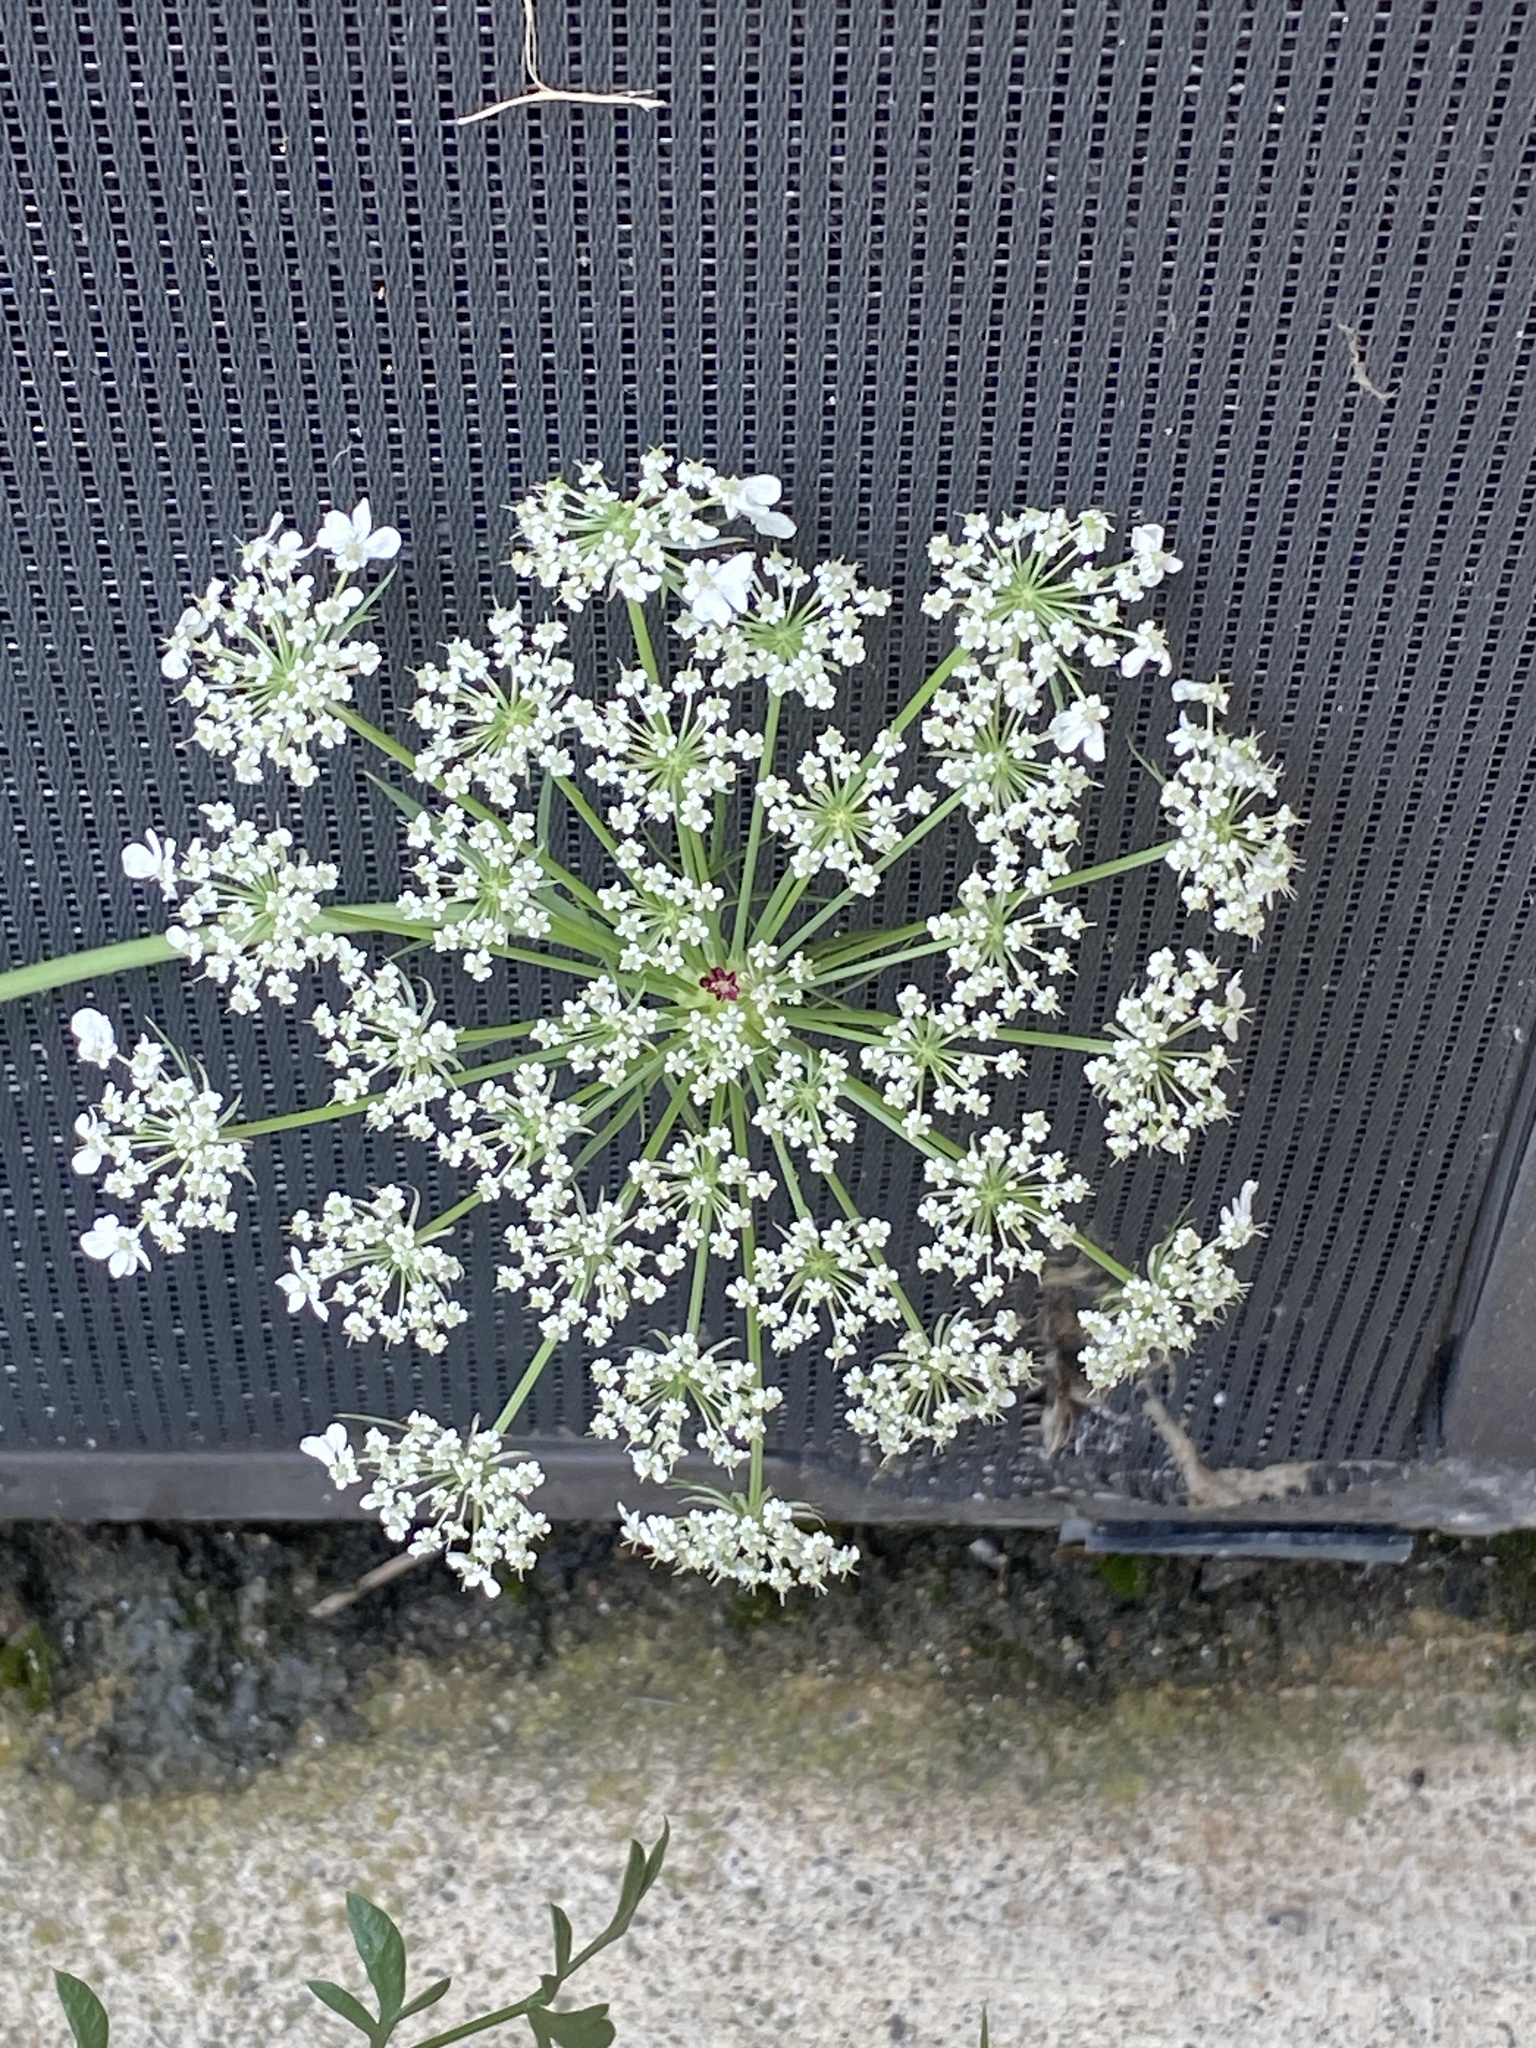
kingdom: Plantae
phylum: Tracheophyta
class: Magnoliopsida
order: Apiales
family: Apiaceae
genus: Daucus
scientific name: Daucus carota
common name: Wild carrot
